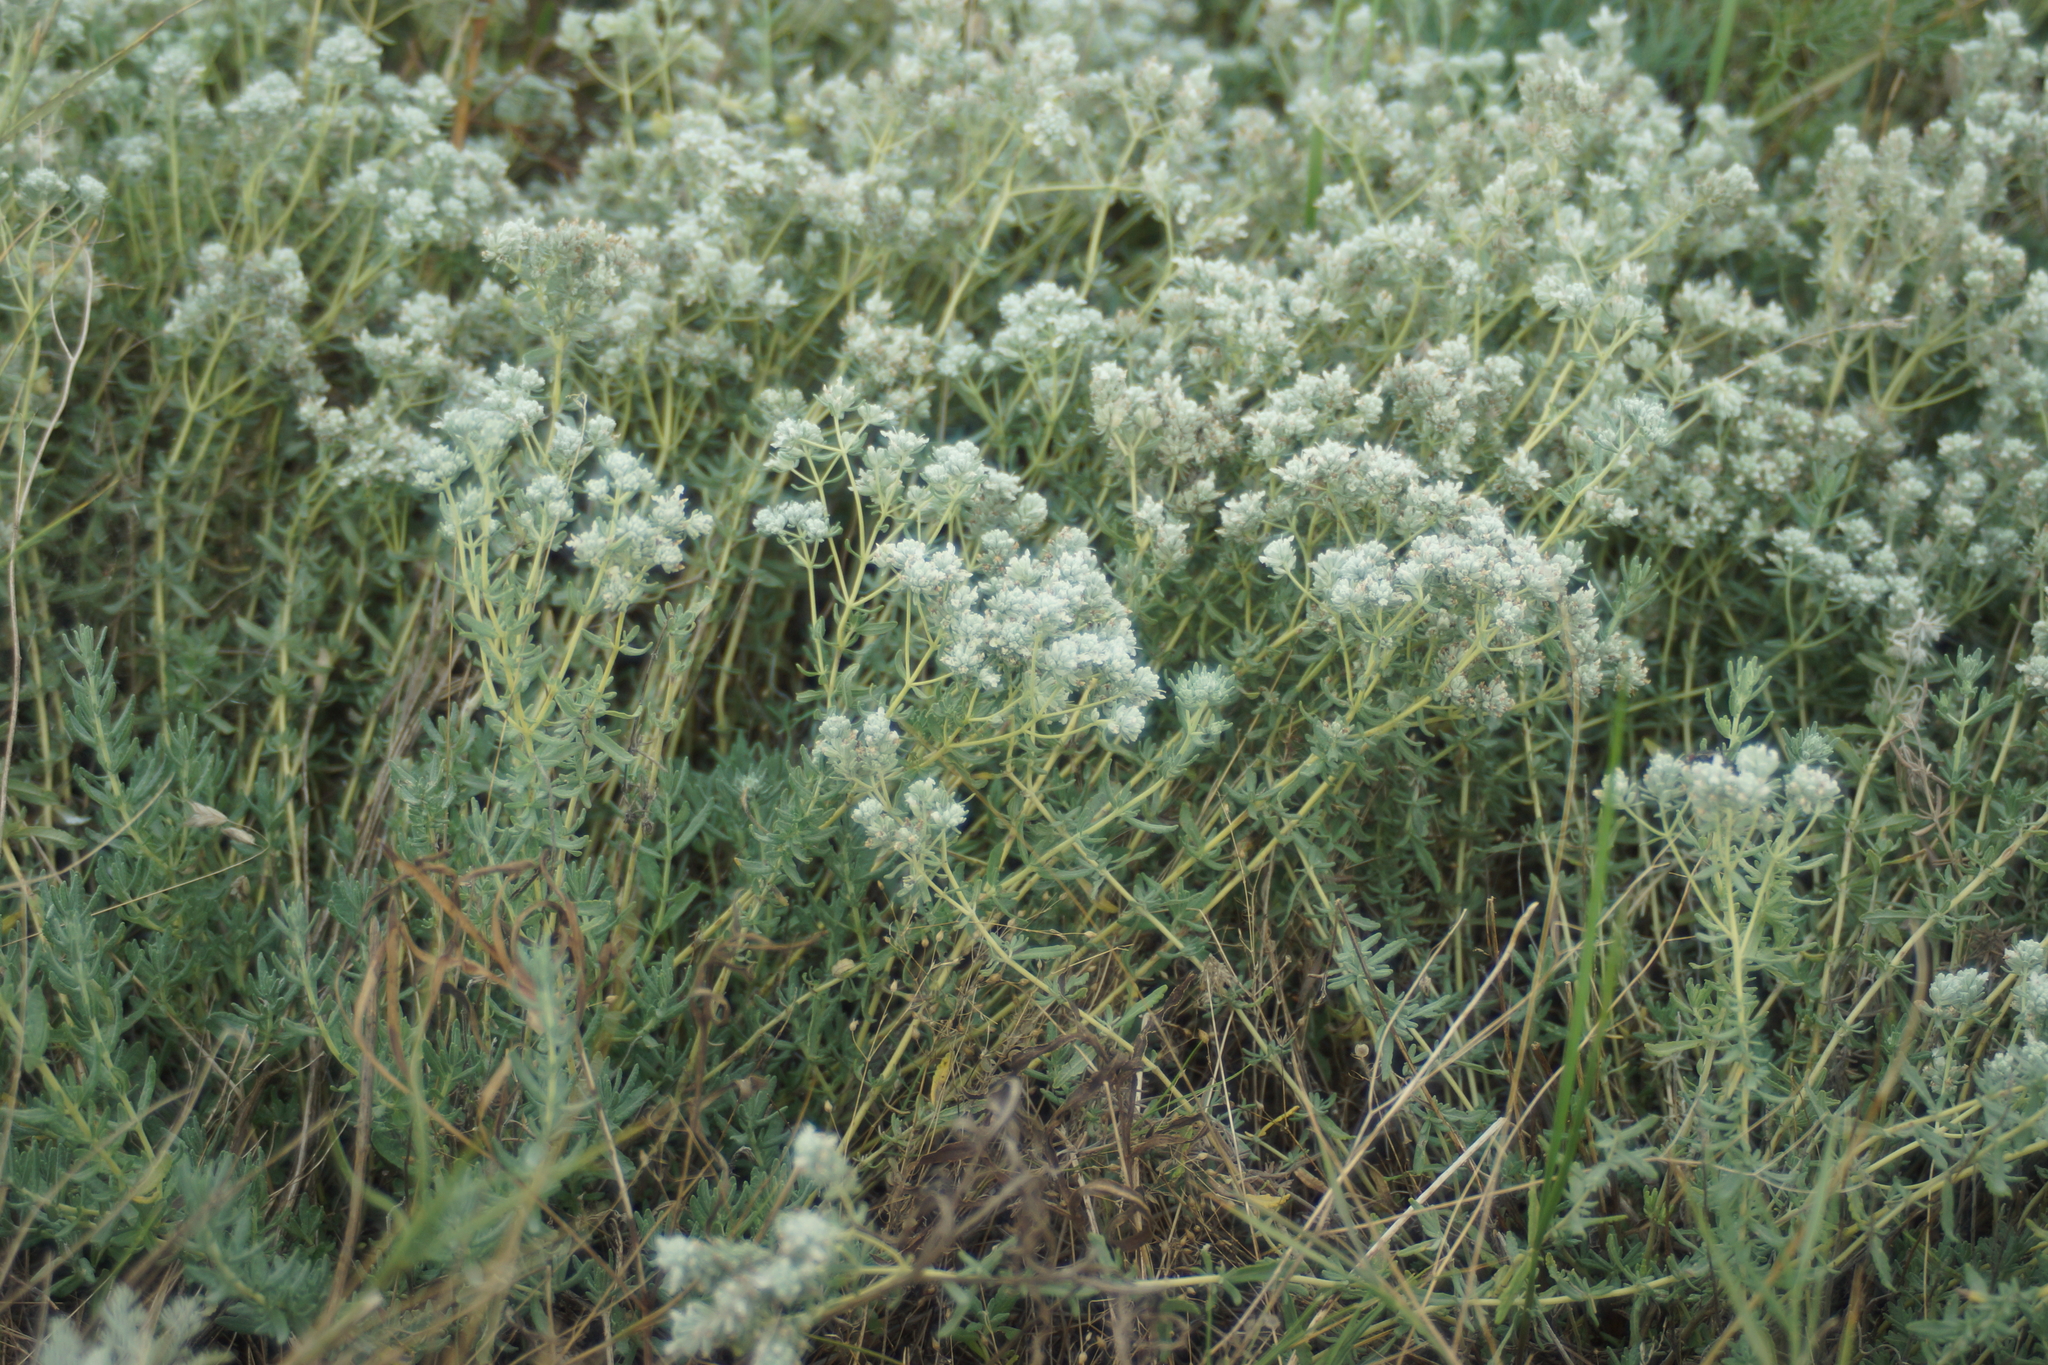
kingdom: Plantae
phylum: Tracheophyta
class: Magnoliopsida
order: Lamiales
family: Lamiaceae
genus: Teucrium
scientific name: Teucrium polium
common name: Poley
